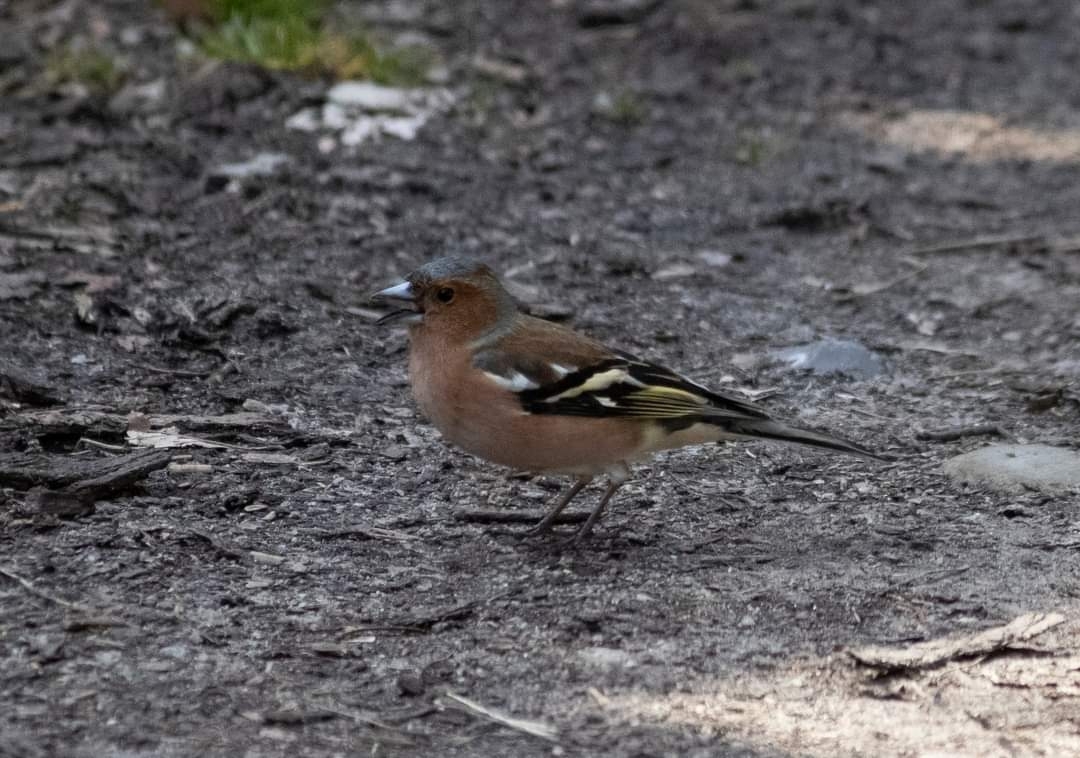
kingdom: Animalia
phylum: Chordata
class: Aves
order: Passeriformes
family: Fringillidae
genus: Fringilla
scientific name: Fringilla coelebs
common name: Common chaffinch
